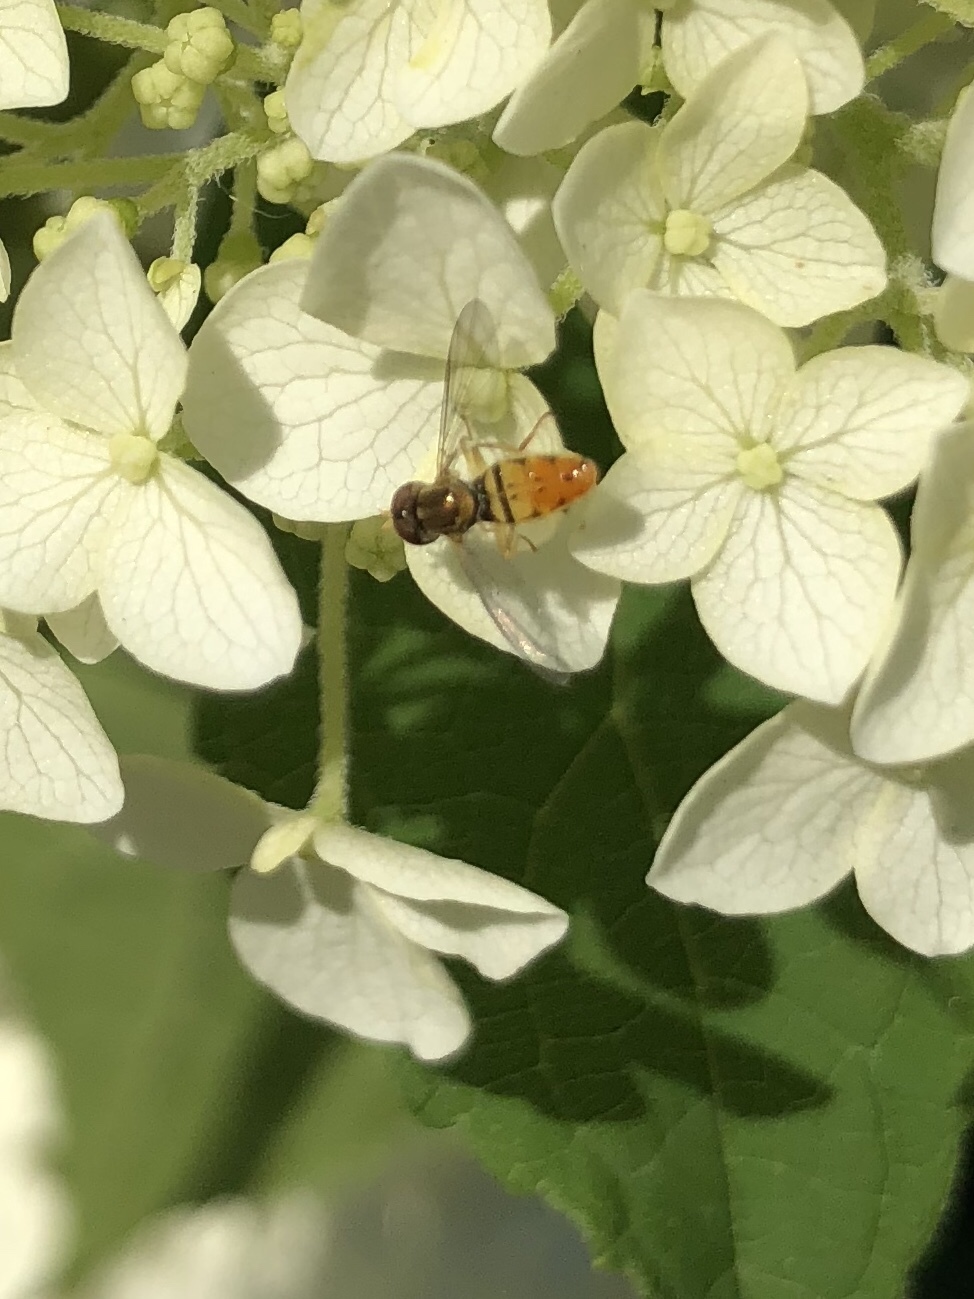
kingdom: Animalia
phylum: Arthropoda
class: Insecta
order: Diptera
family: Syrphidae
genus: Toxomerus
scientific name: Toxomerus marginatus
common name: Syrphid fly
